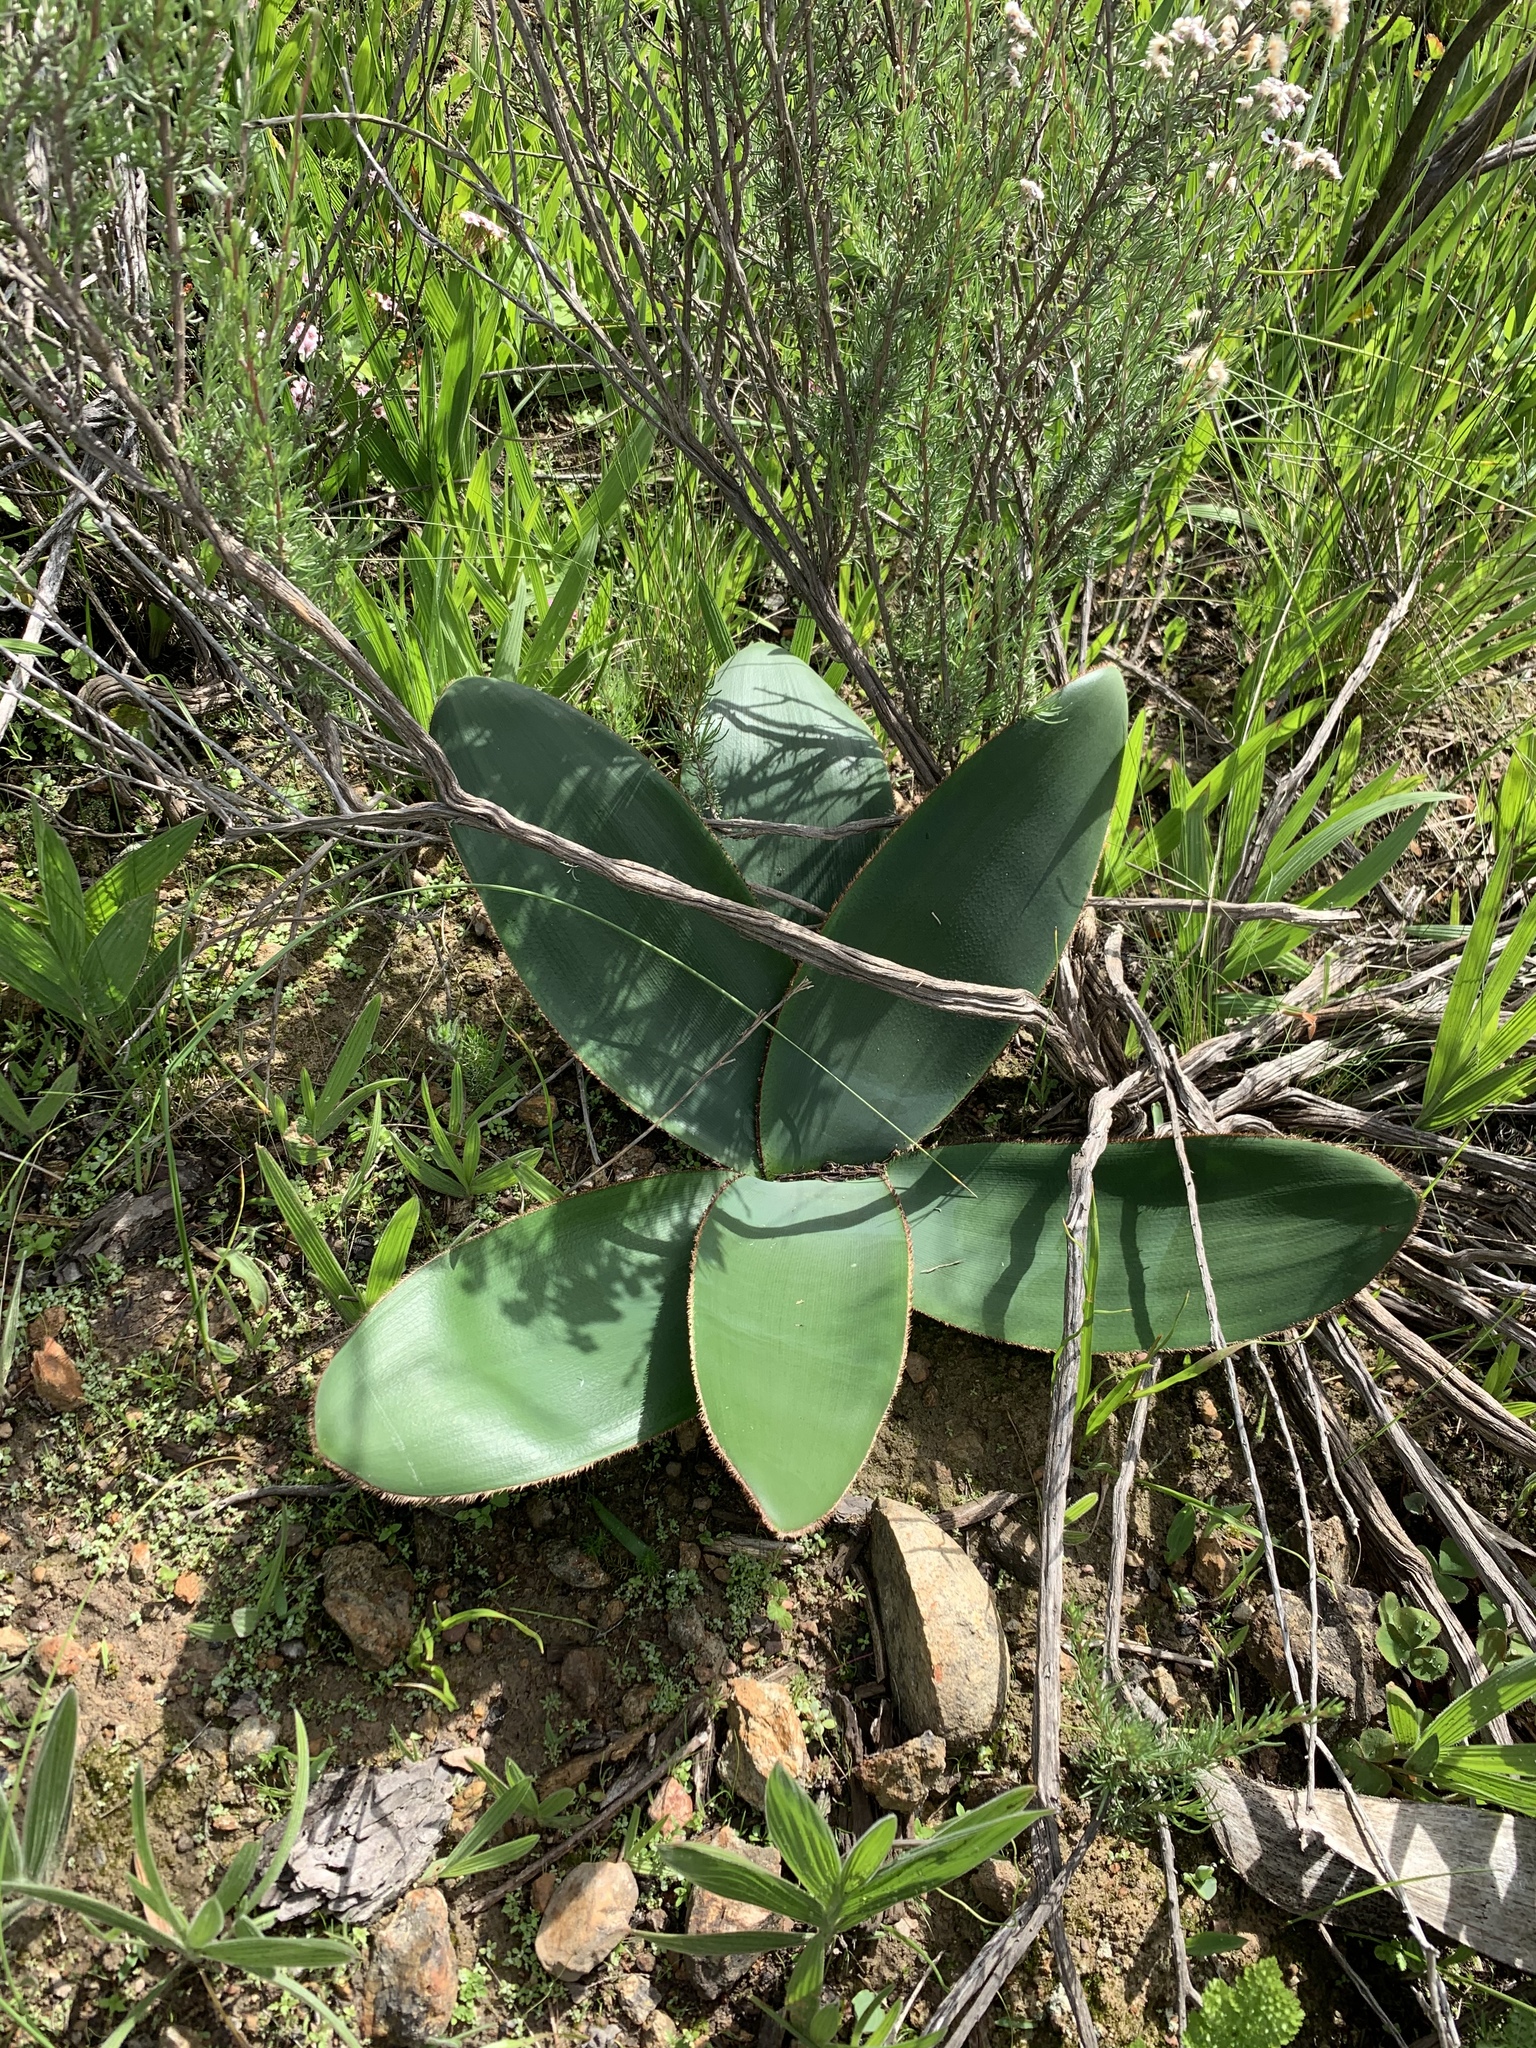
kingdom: Plantae
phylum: Tracheophyta
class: Liliopsida
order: Asparagales
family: Amaryllidaceae
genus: Crossyne
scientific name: Crossyne guttata
